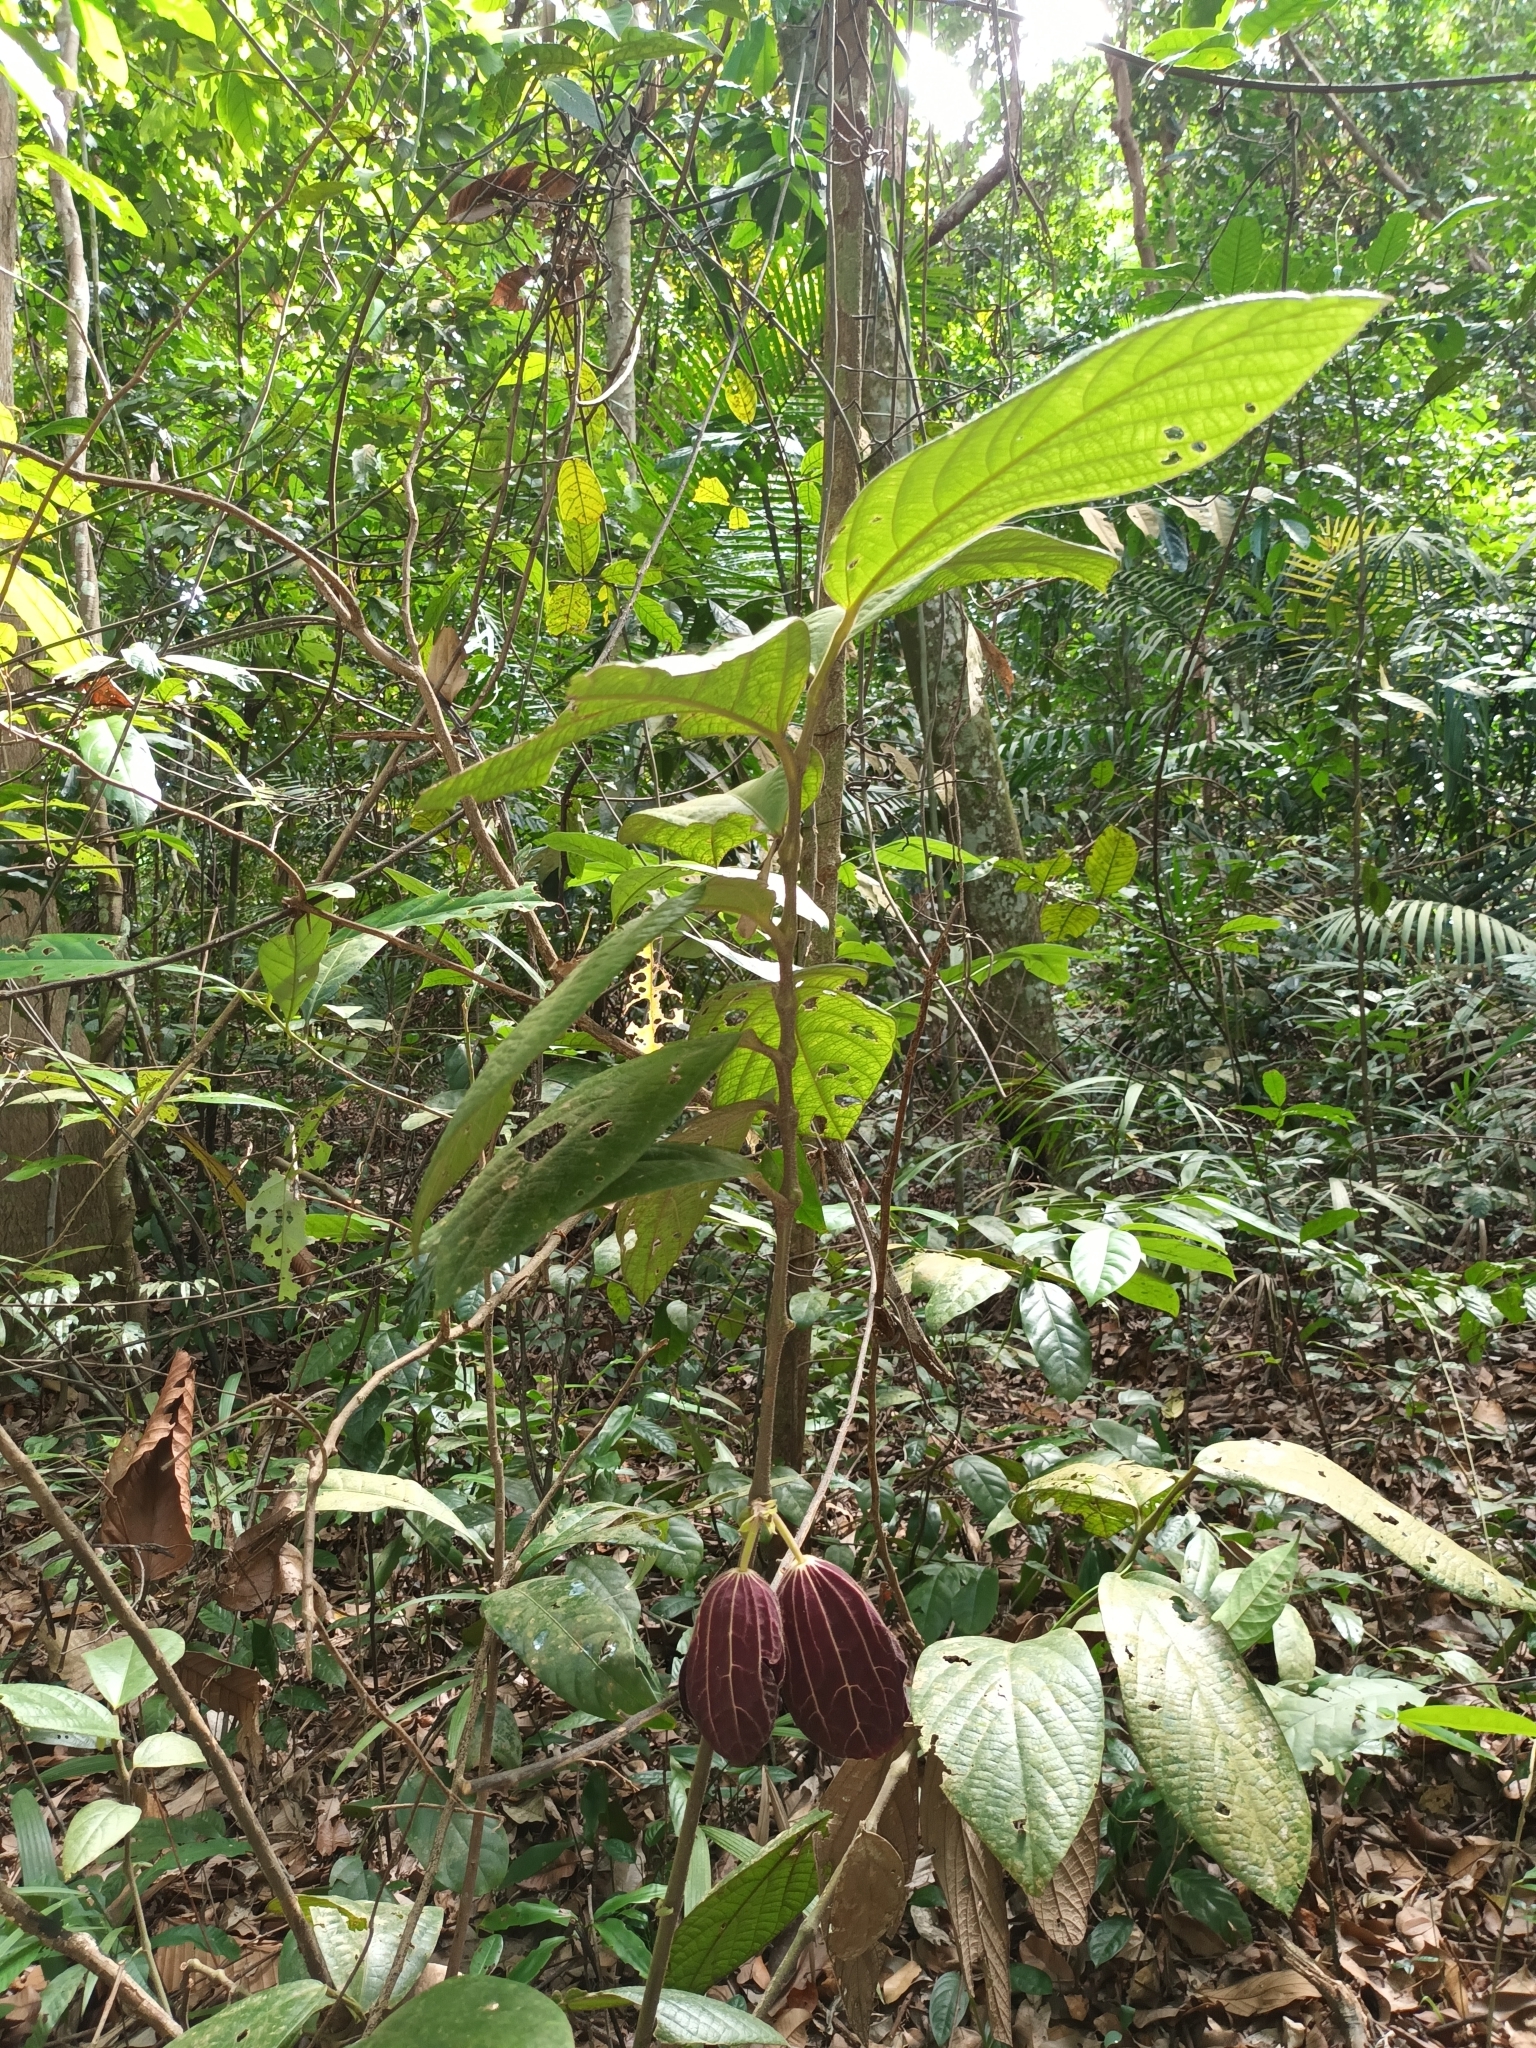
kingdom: Plantae
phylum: Tracheophyta
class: Magnoliopsida
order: Piperales
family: Aristolochiaceae
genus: Thottea
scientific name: Thottea grandiflora
